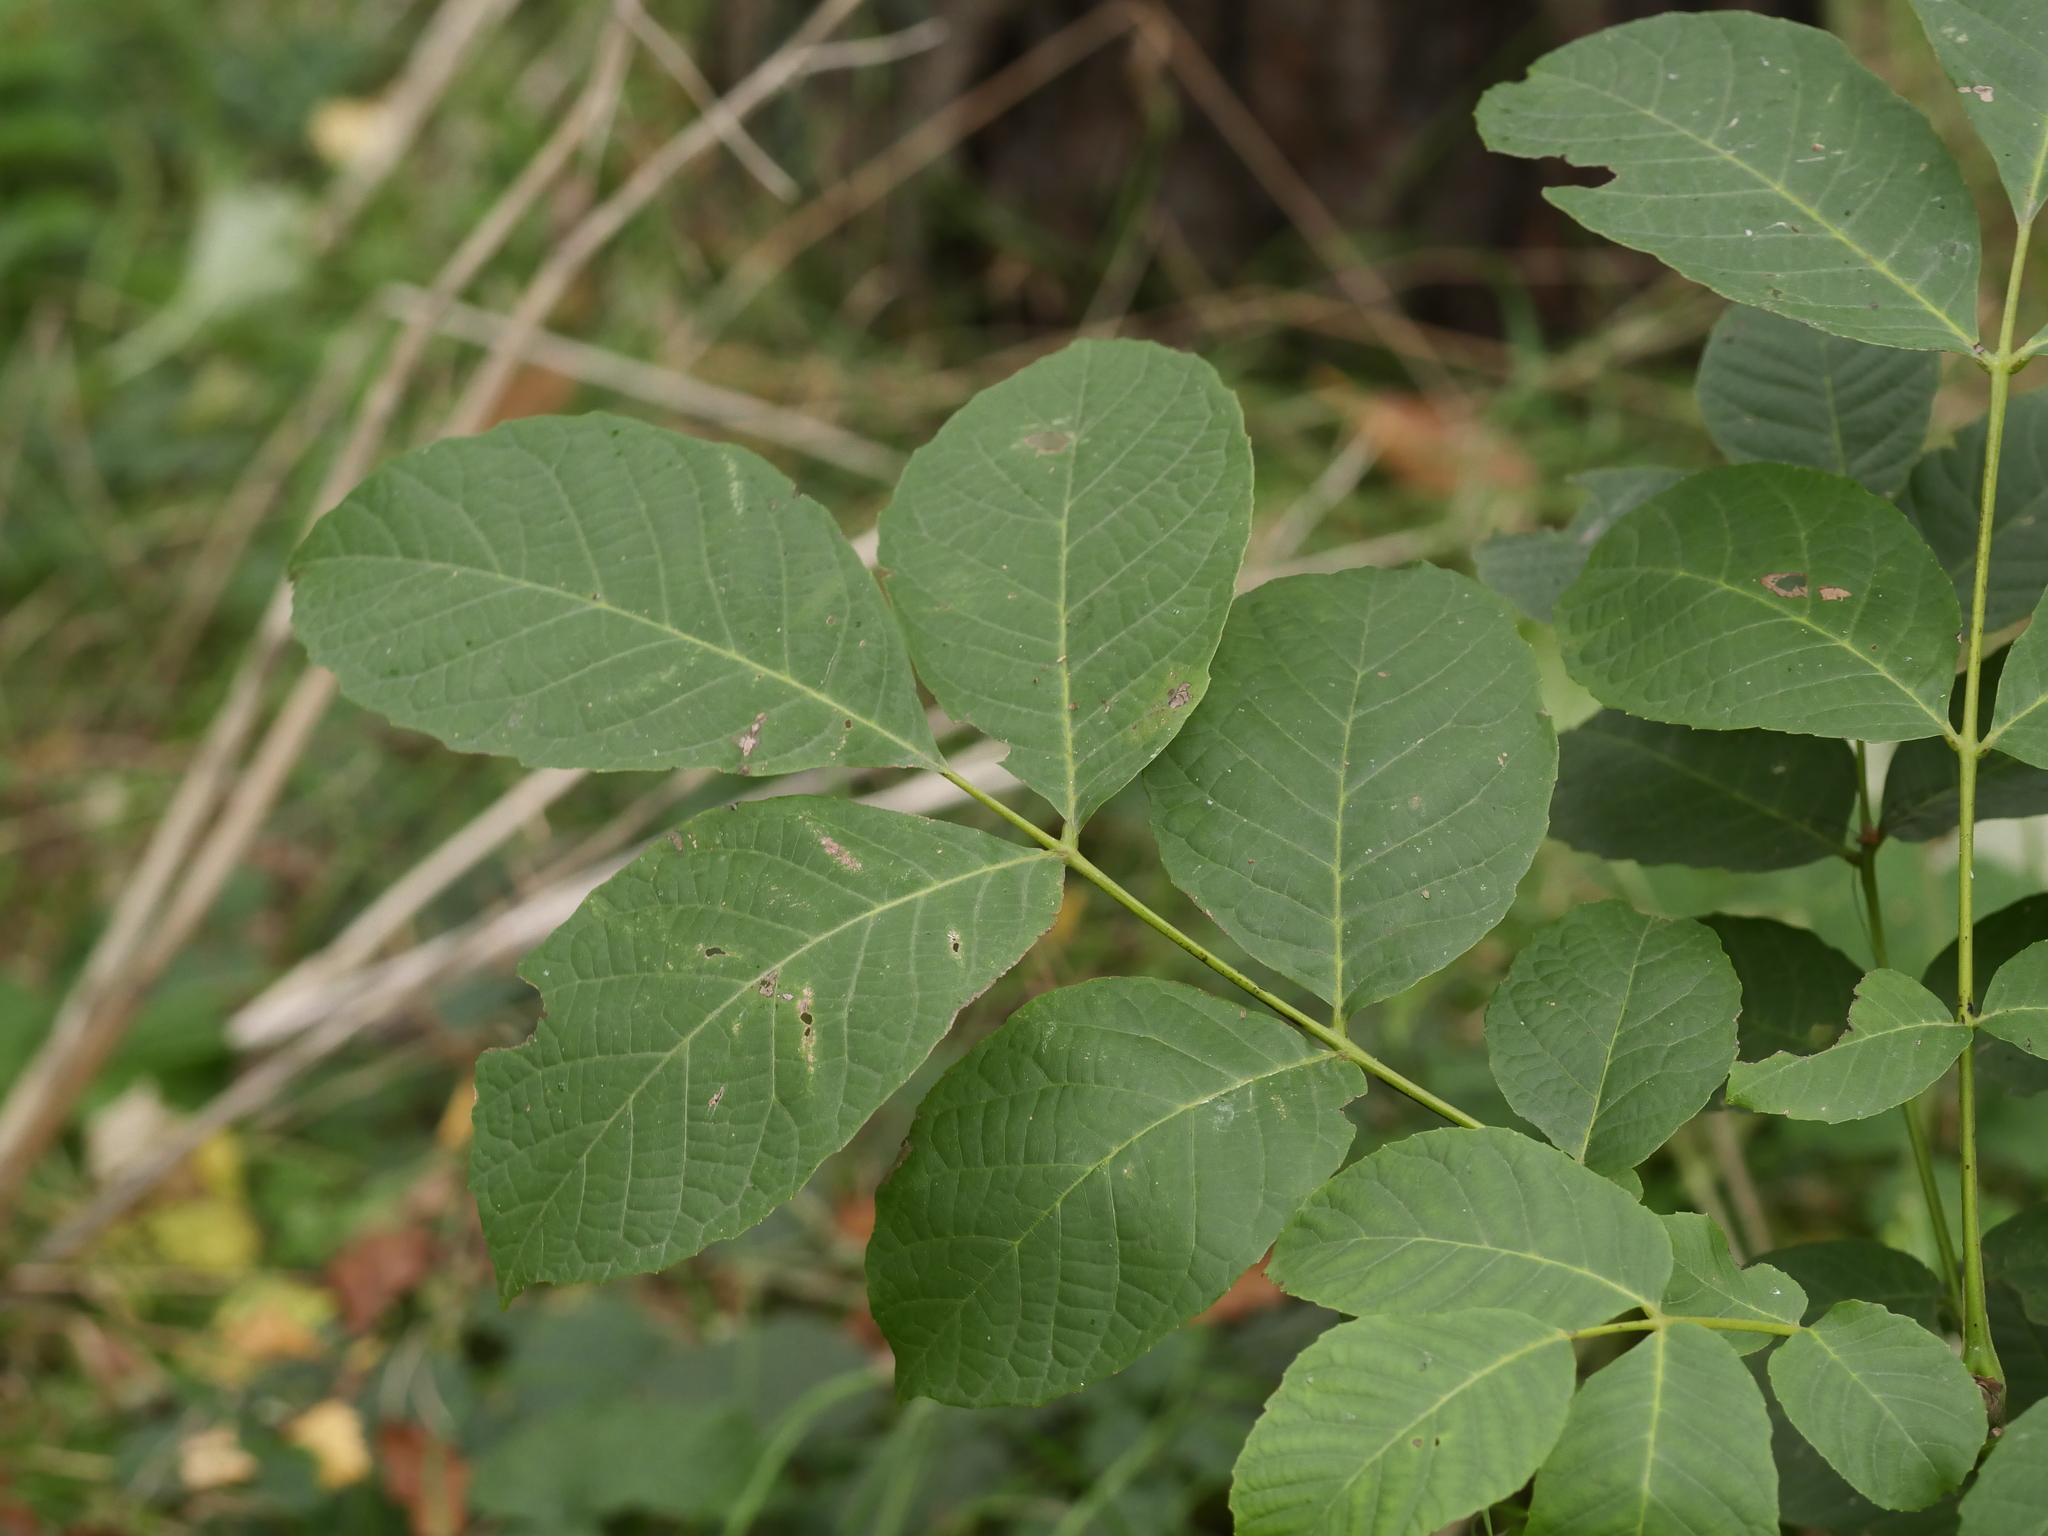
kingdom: Plantae
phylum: Tracheophyta
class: Magnoliopsida
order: Fagales
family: Juglandaceae
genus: Juglans
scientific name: Juglans regia
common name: Walnut
